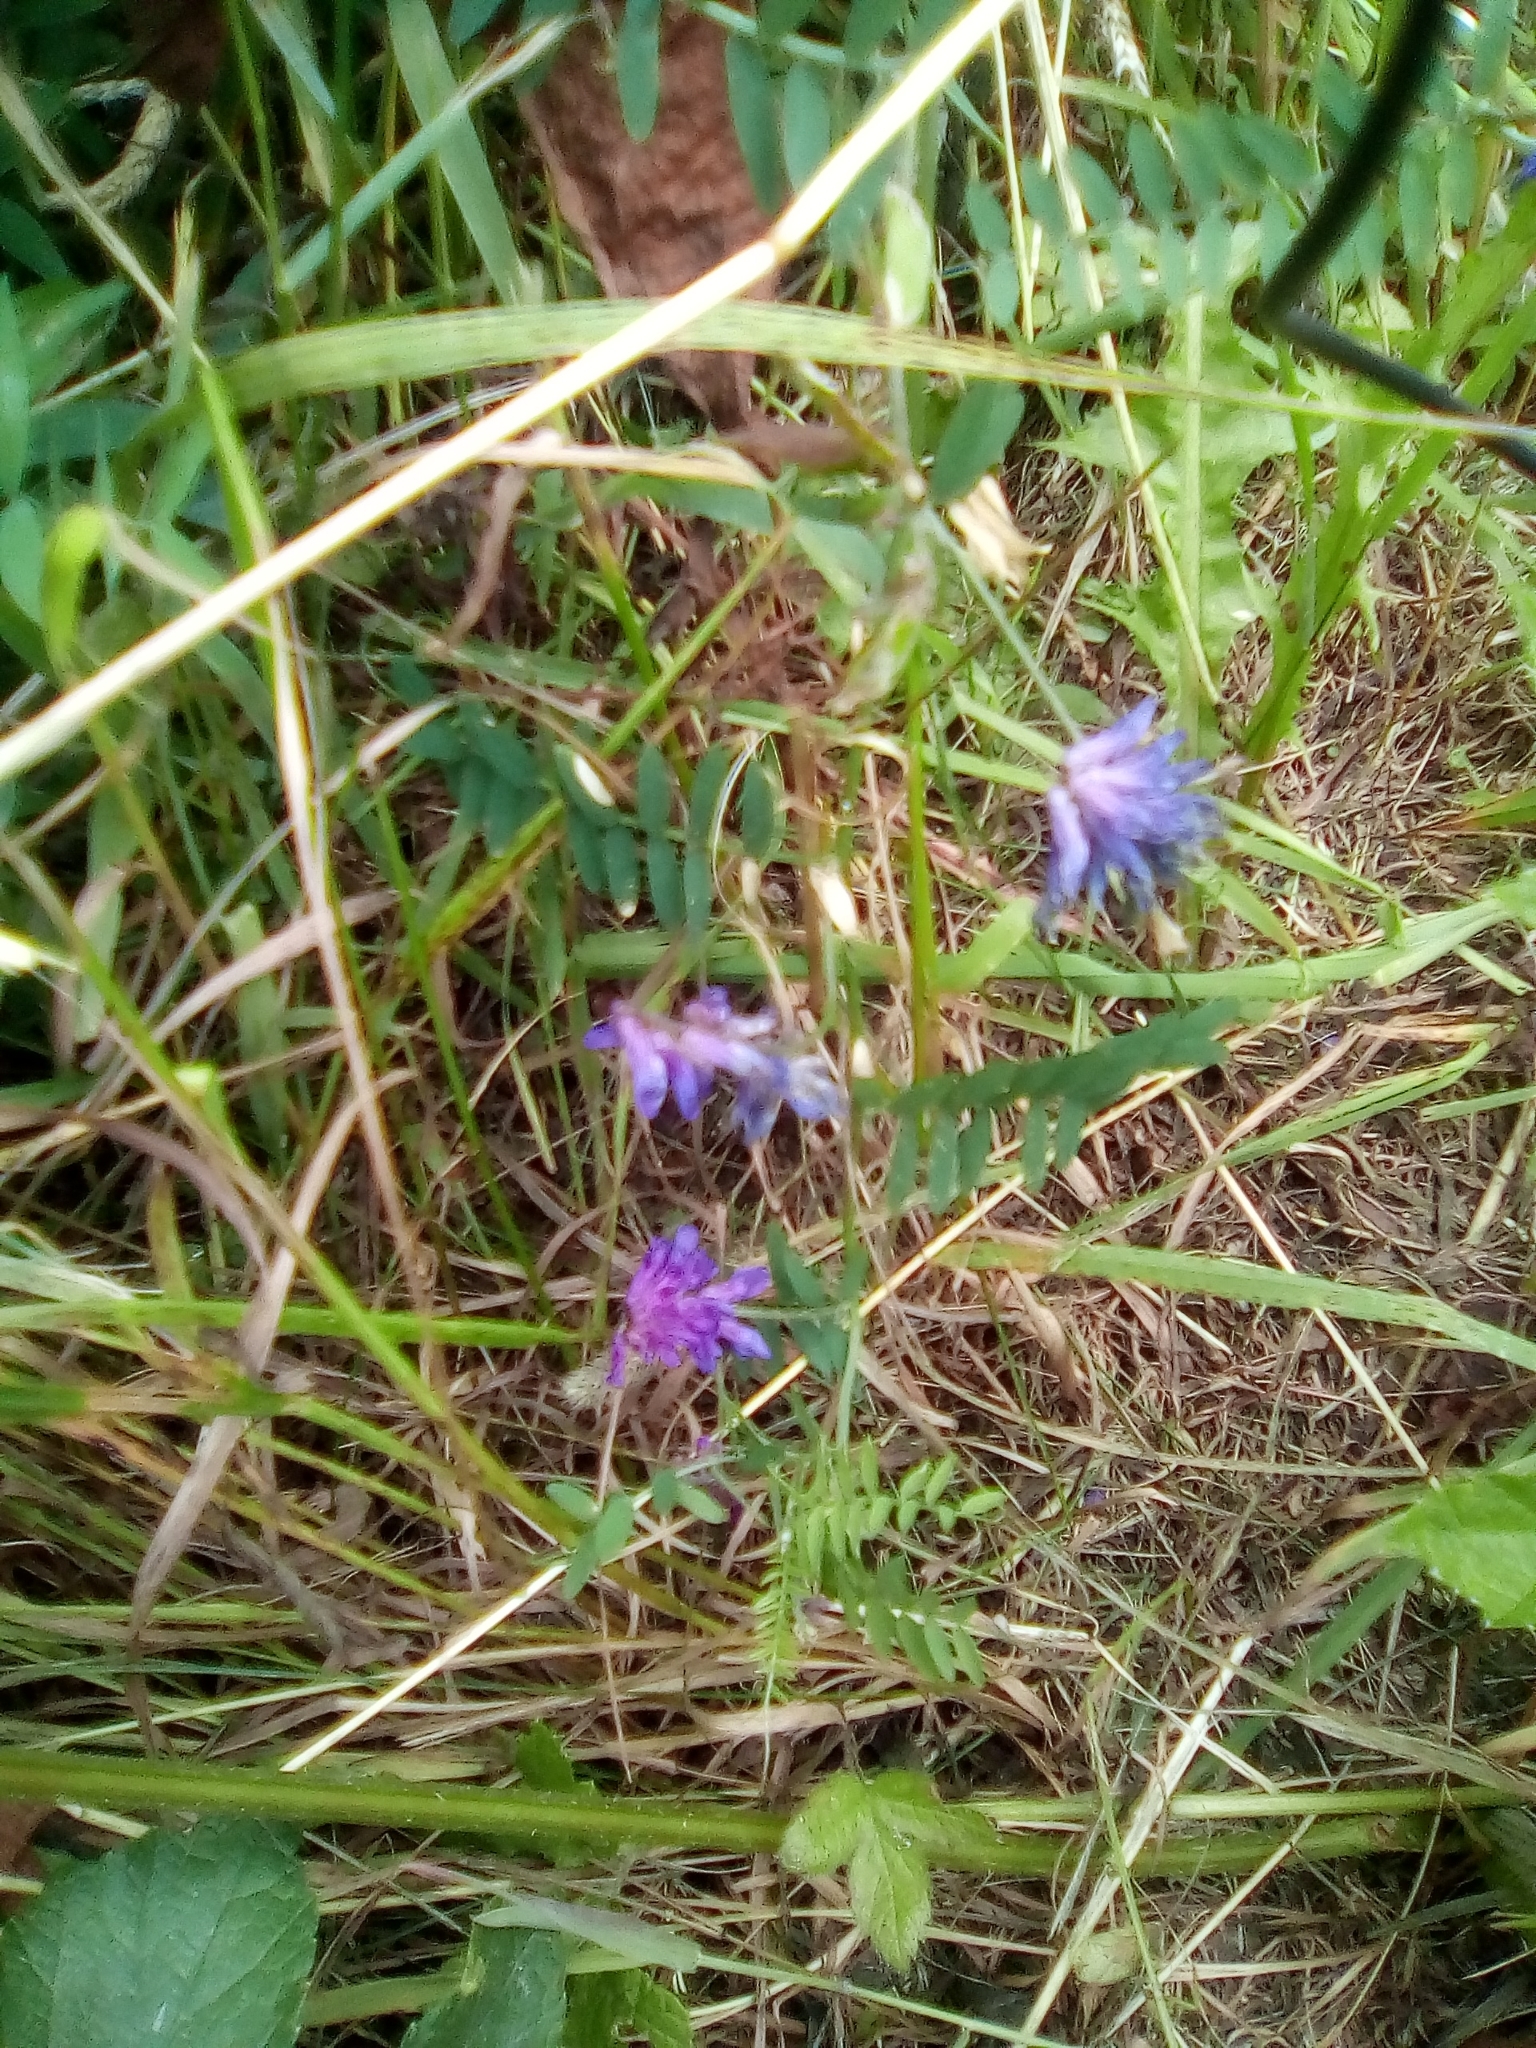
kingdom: Plantae
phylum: Tracheophyta
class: Magnoliopsida
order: Fabales
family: Fabaceae
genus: Vicia
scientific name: Vicia cracca
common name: Bird vetch
